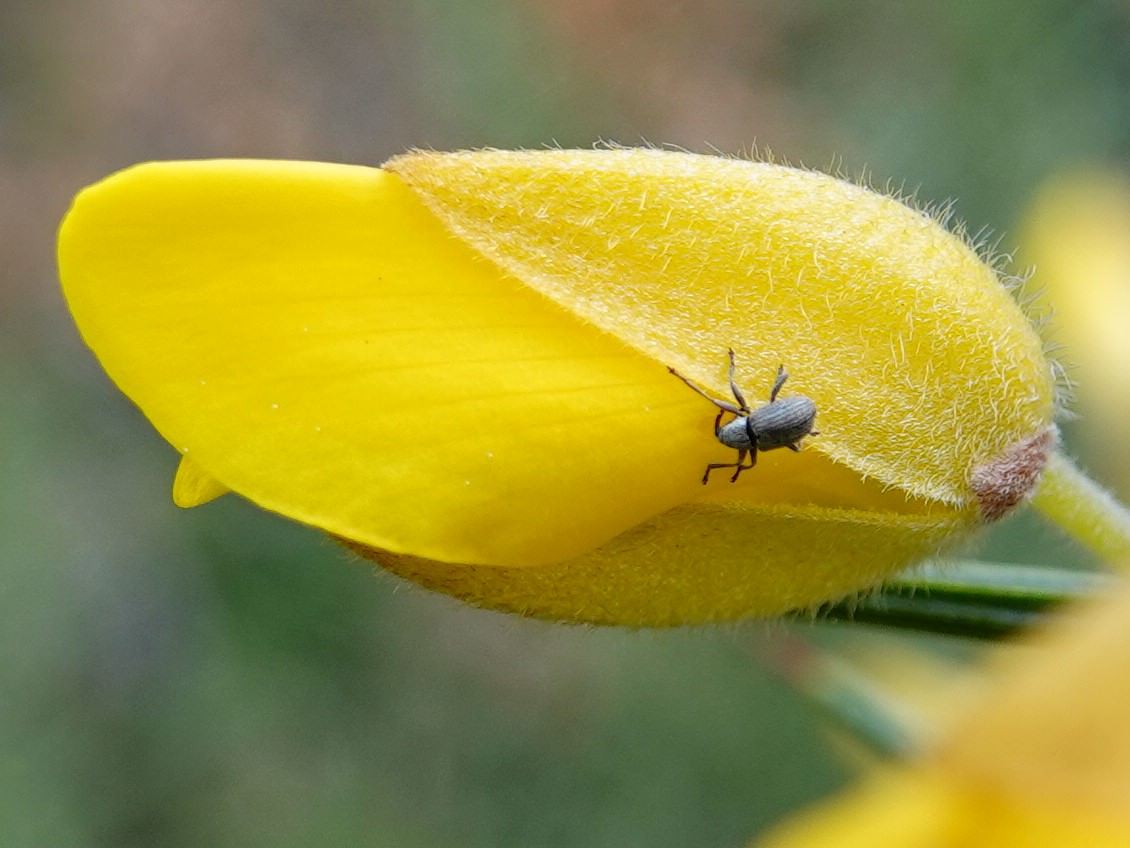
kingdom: Animalia
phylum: Arthropoda
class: Insecta
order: Coleoptera
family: Brentidae
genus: Exapion
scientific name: Exapion ulicis
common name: Gorse seed weevil
